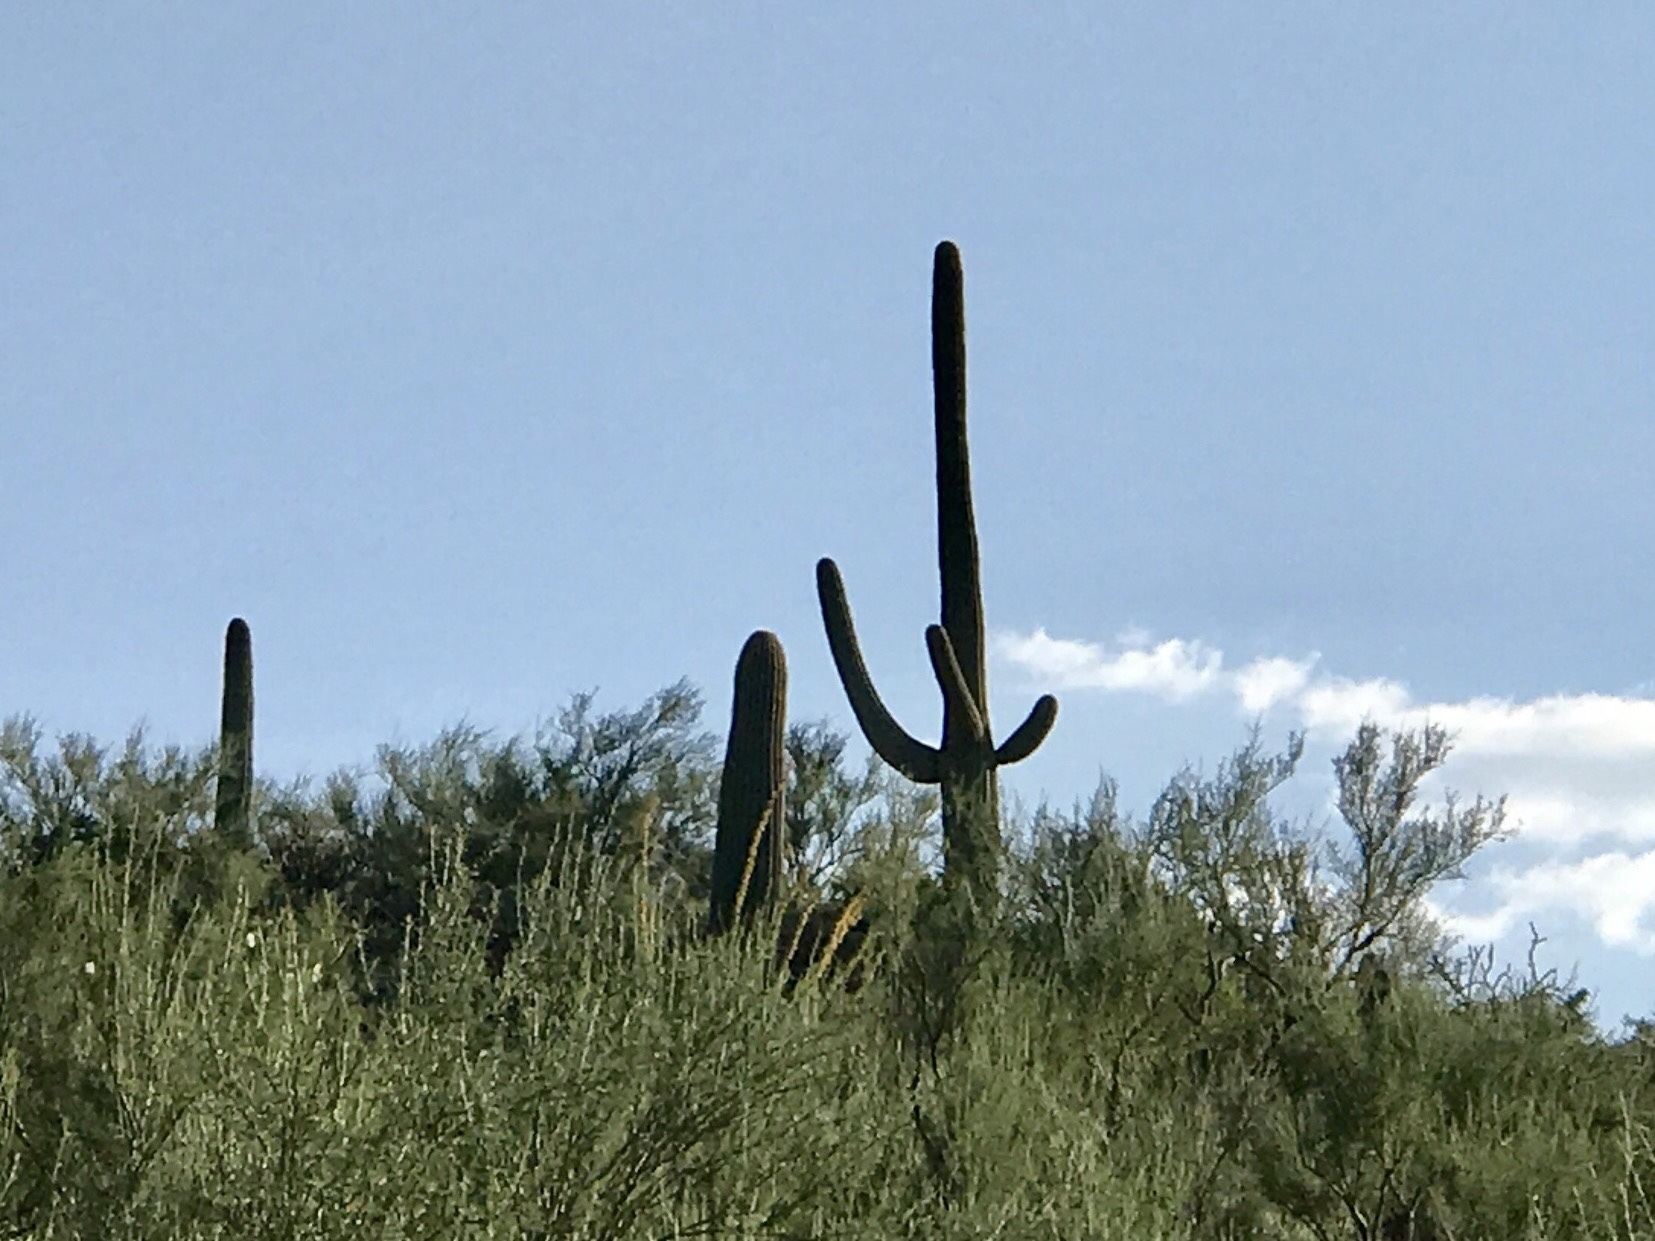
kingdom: Plantae
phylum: Tracheophyta
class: Magnoliopsida
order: Caryophyllales
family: Cactaceae
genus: Carnegiea
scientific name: Carnegiea gigantea
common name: Saguaro
